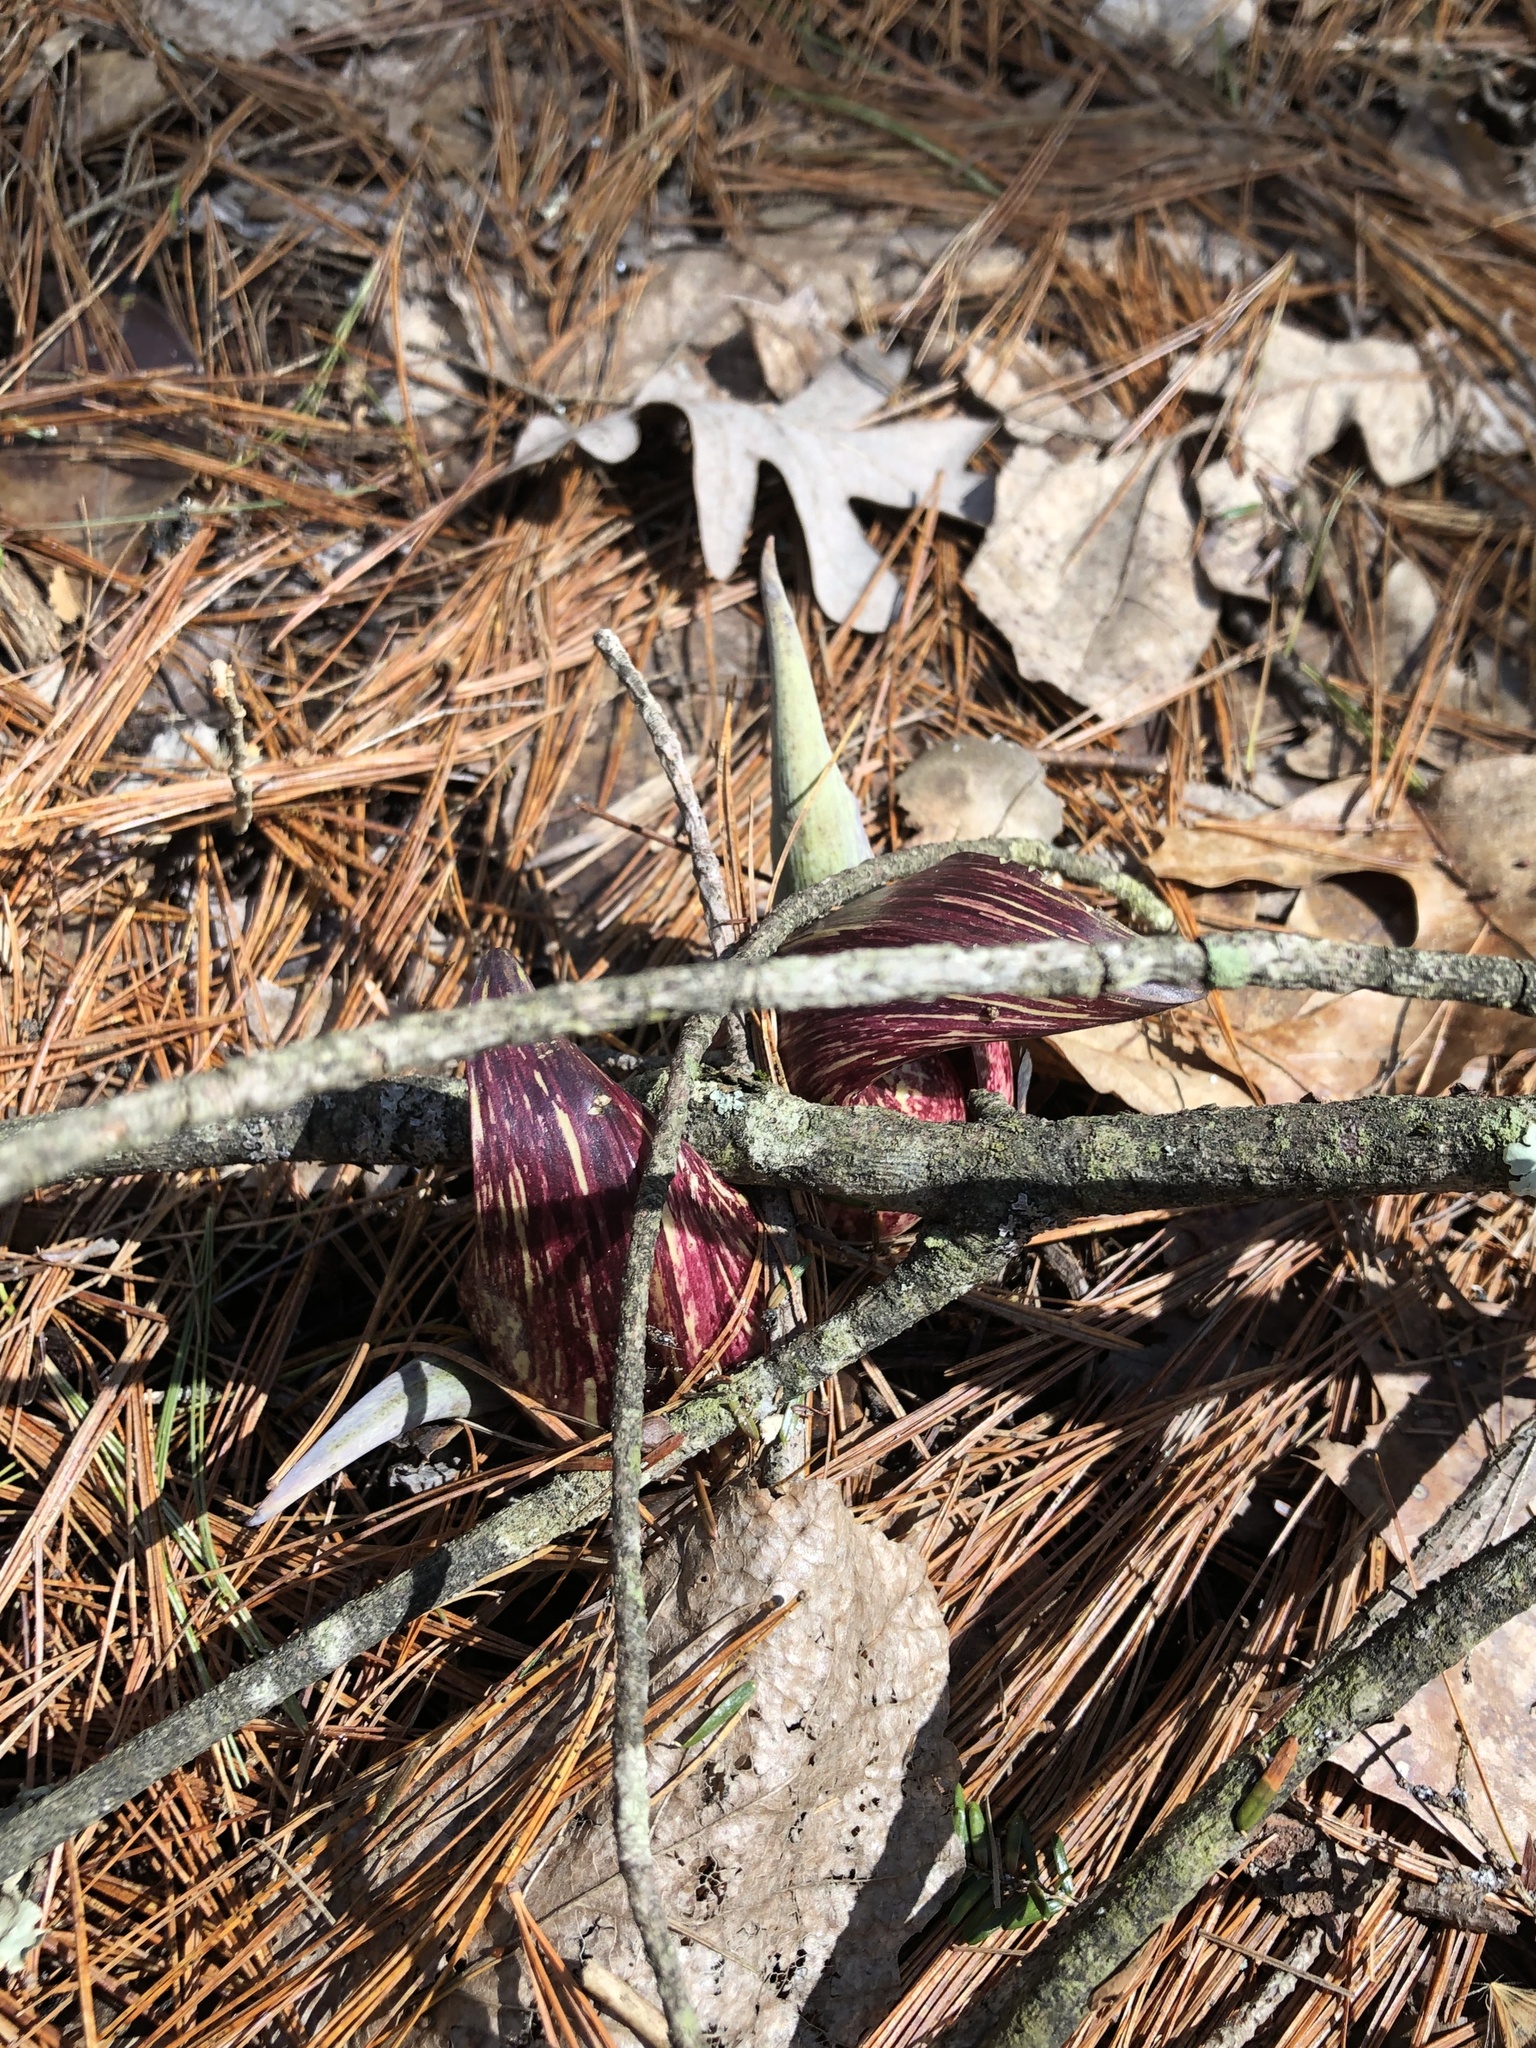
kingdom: Plantae
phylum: Tracheophyta
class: Liliopsida
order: Alismatales
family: Araceae
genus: Symplocarpus
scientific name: Symplocarpus foetidus
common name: Eastern skunk cabbage
